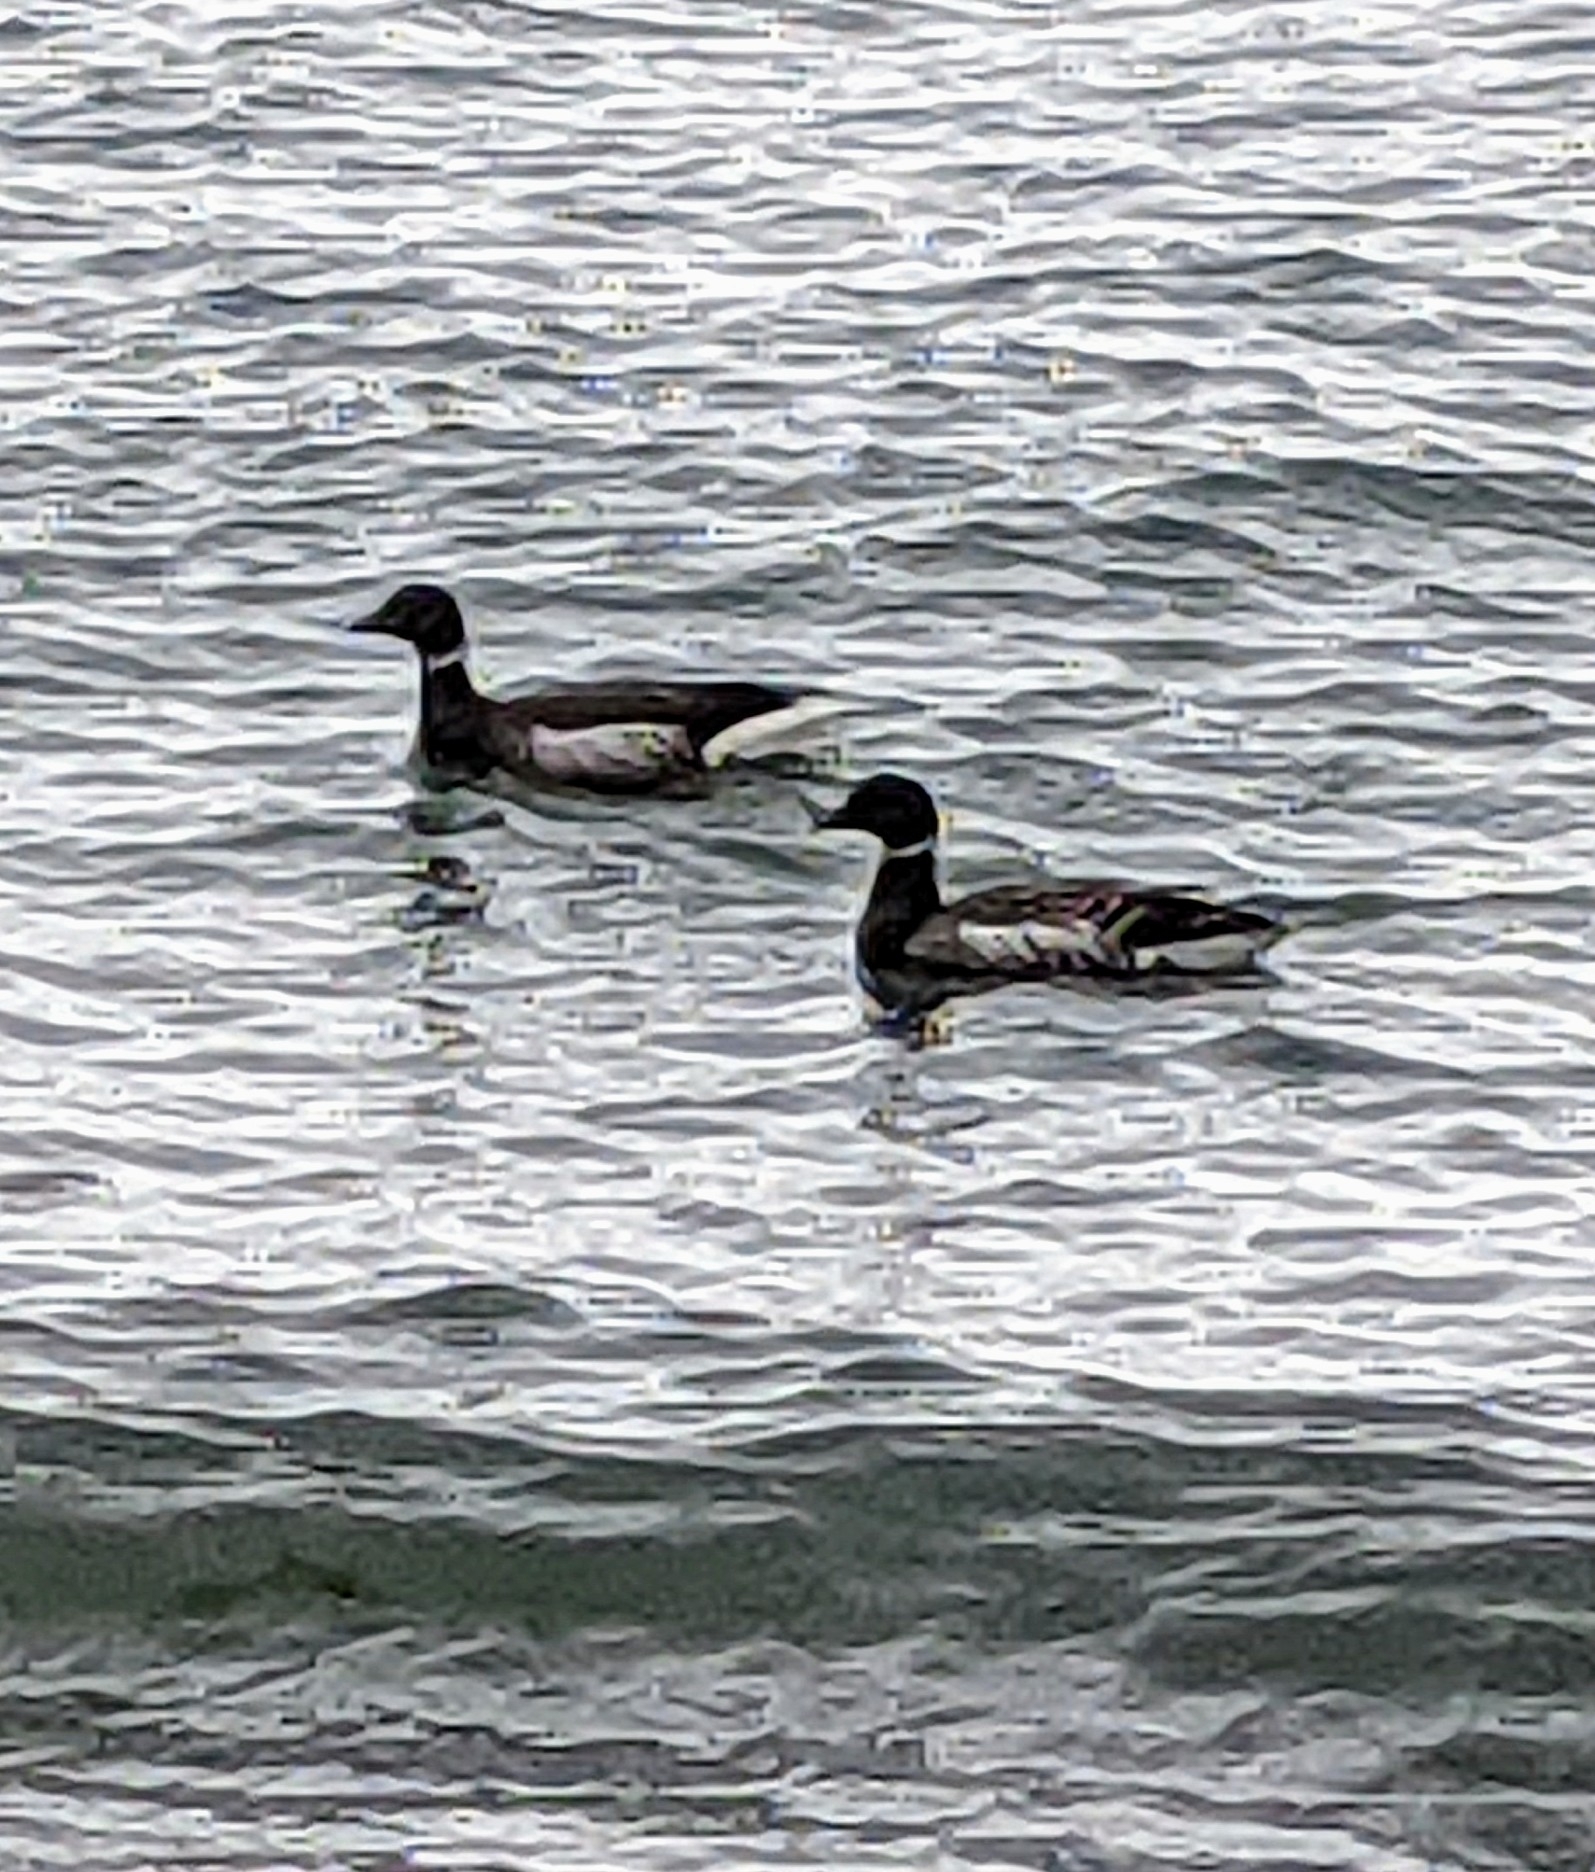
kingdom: Animalia
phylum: Chordata
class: Aves
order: Anseriformes
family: Anatidae
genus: Branta
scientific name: Branta bernicla
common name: Brant goose
